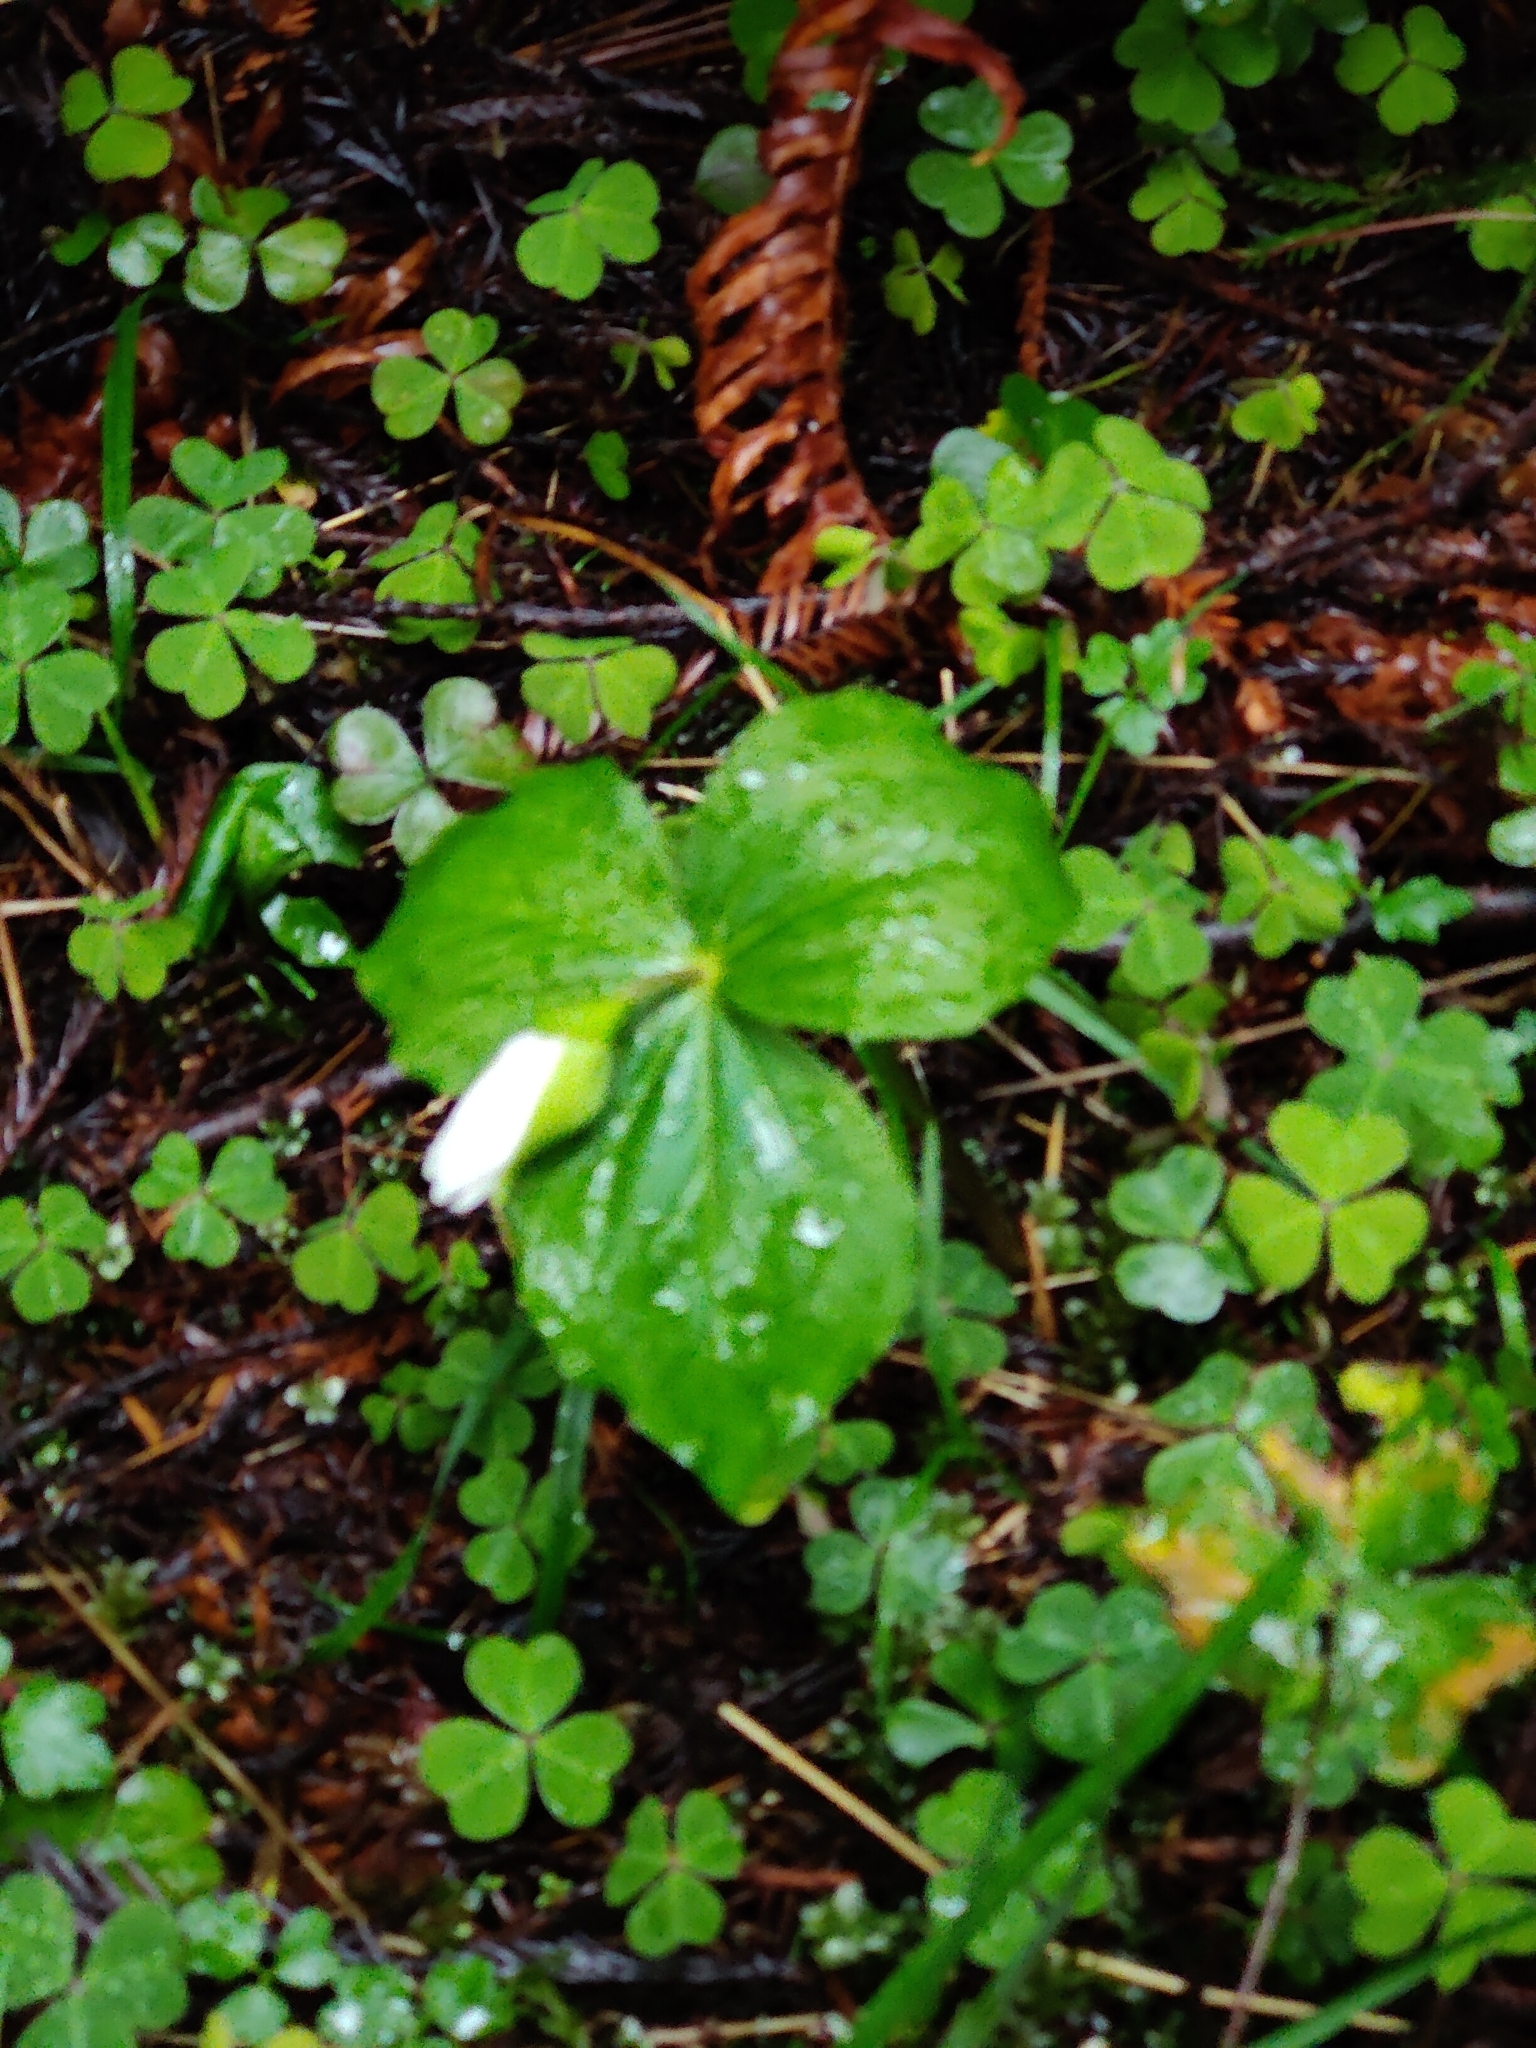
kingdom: Plantae
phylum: Tracheophyta
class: Liliopsida
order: Liliales
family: Melanthiaceae
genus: Trillium
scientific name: Trillium ovatum
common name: Pacific trillium
